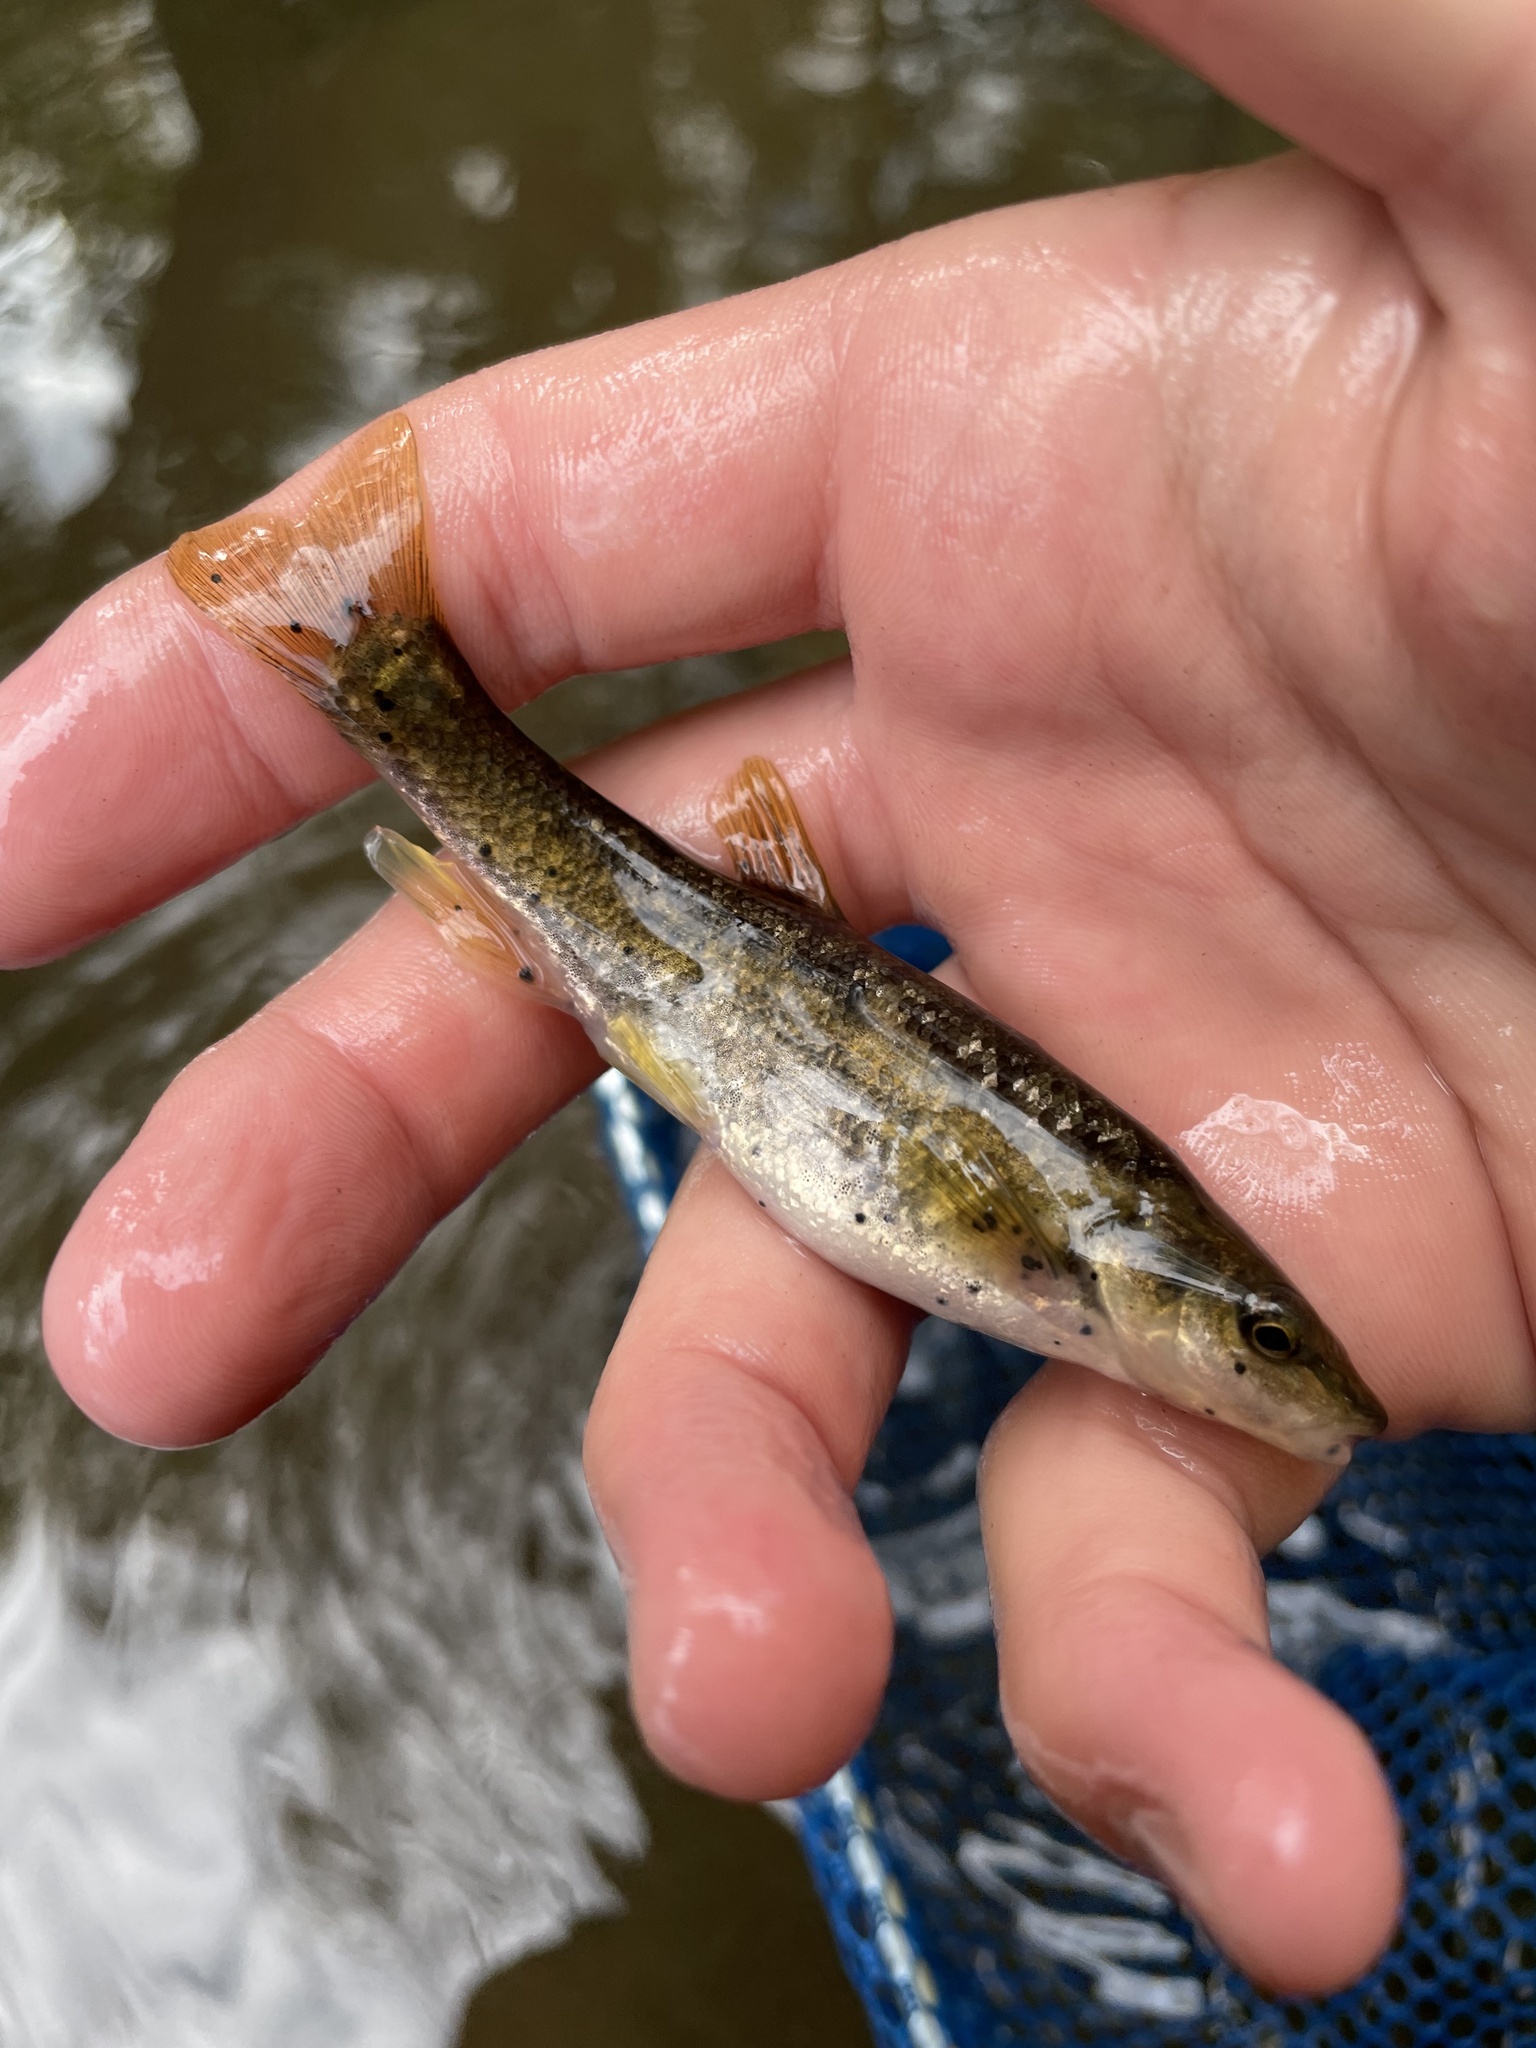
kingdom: Animalia
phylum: Platyhelminthes
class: Trematoda
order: Diplostomida
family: Diplostomidae
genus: Neascus
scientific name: Neascus
